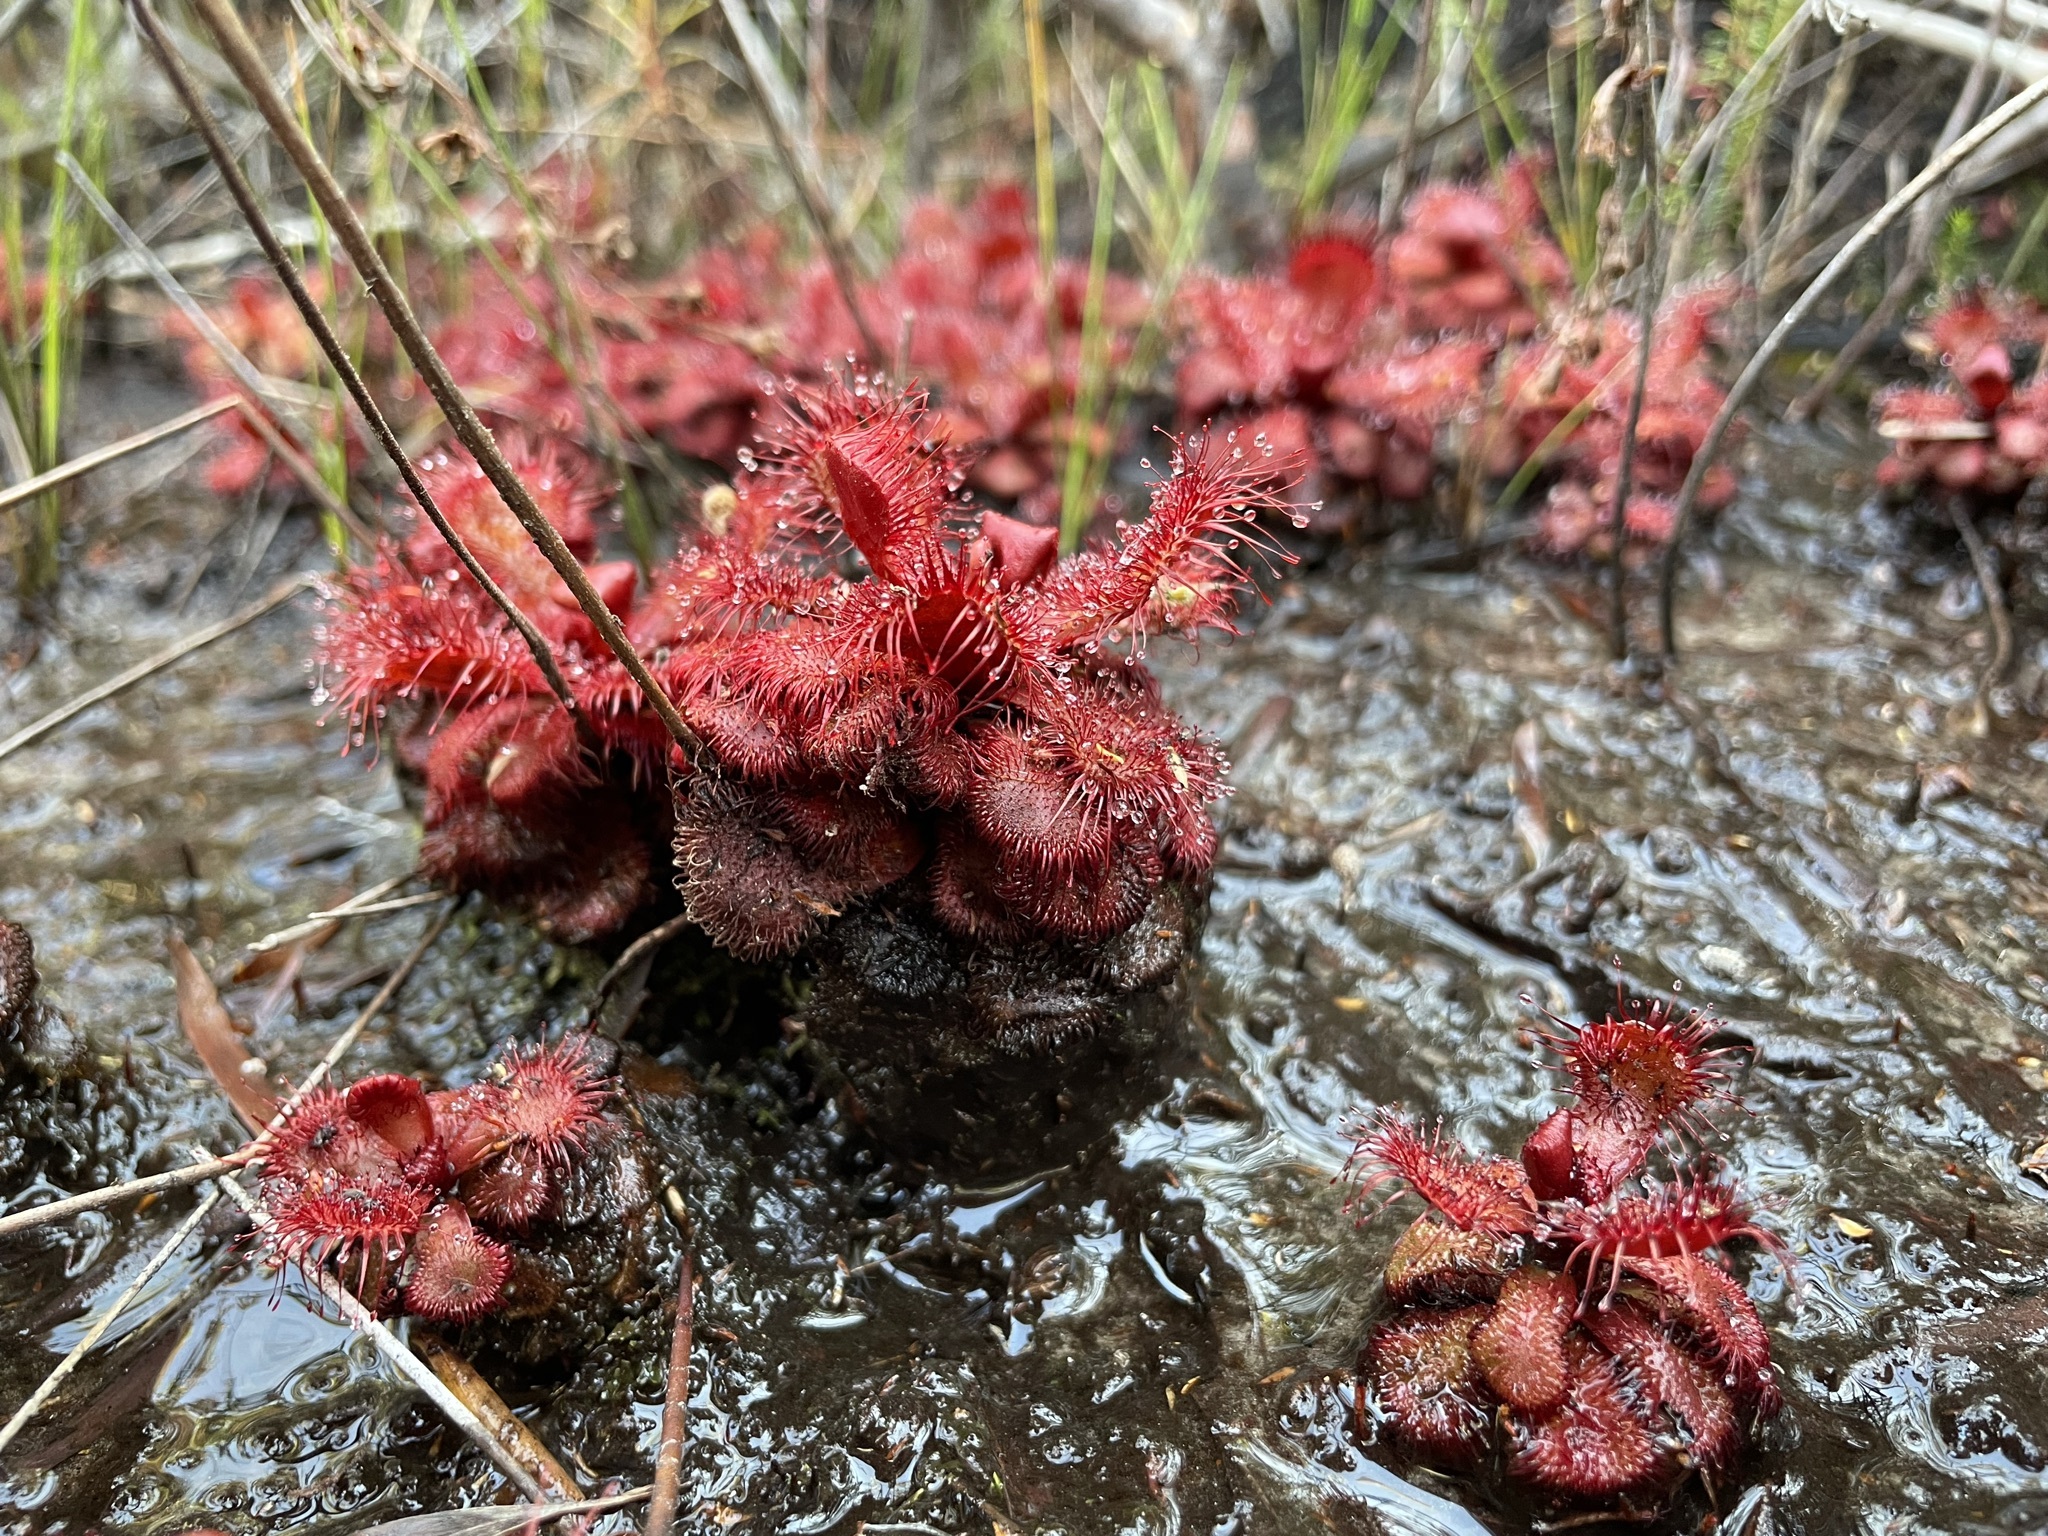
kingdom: Plantae
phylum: Tracheophyta
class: Magnoliopsida
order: Caryophyllales
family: Droseraceae
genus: Drosera
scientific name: Drosera slackii
